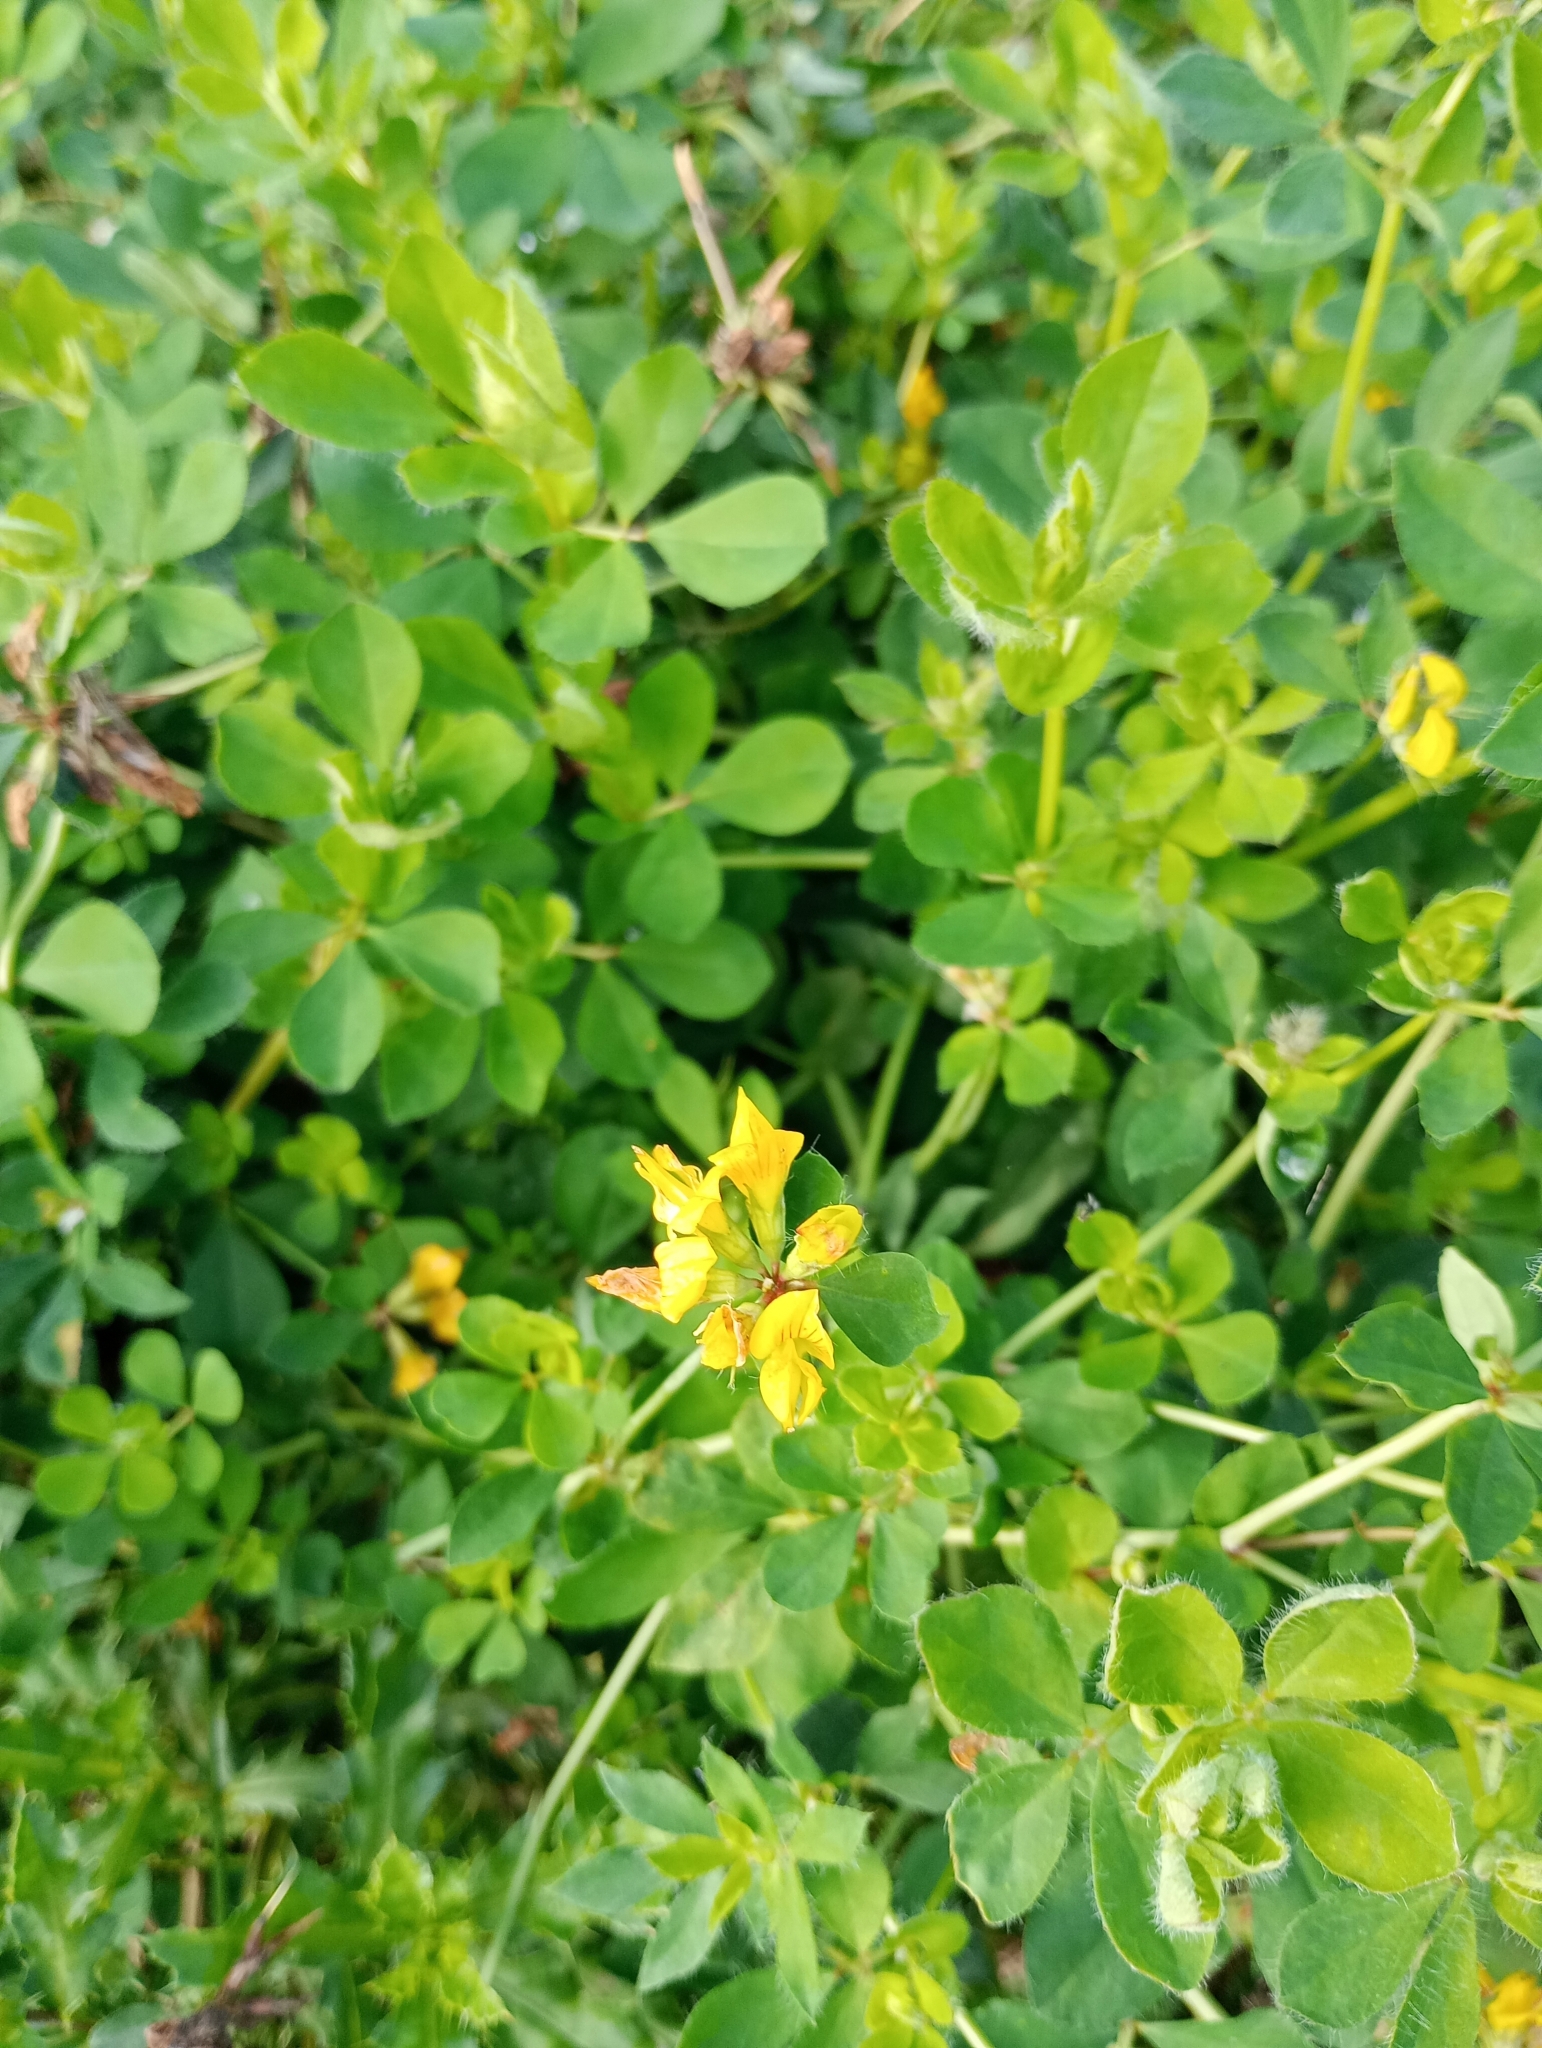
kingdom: Plantae
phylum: Tracheophyta
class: Magnoliopsida
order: Fabales
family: Fabaceae
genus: Lotus
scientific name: Lotus pedunculatus
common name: Greater birdsfoot-trefoil
